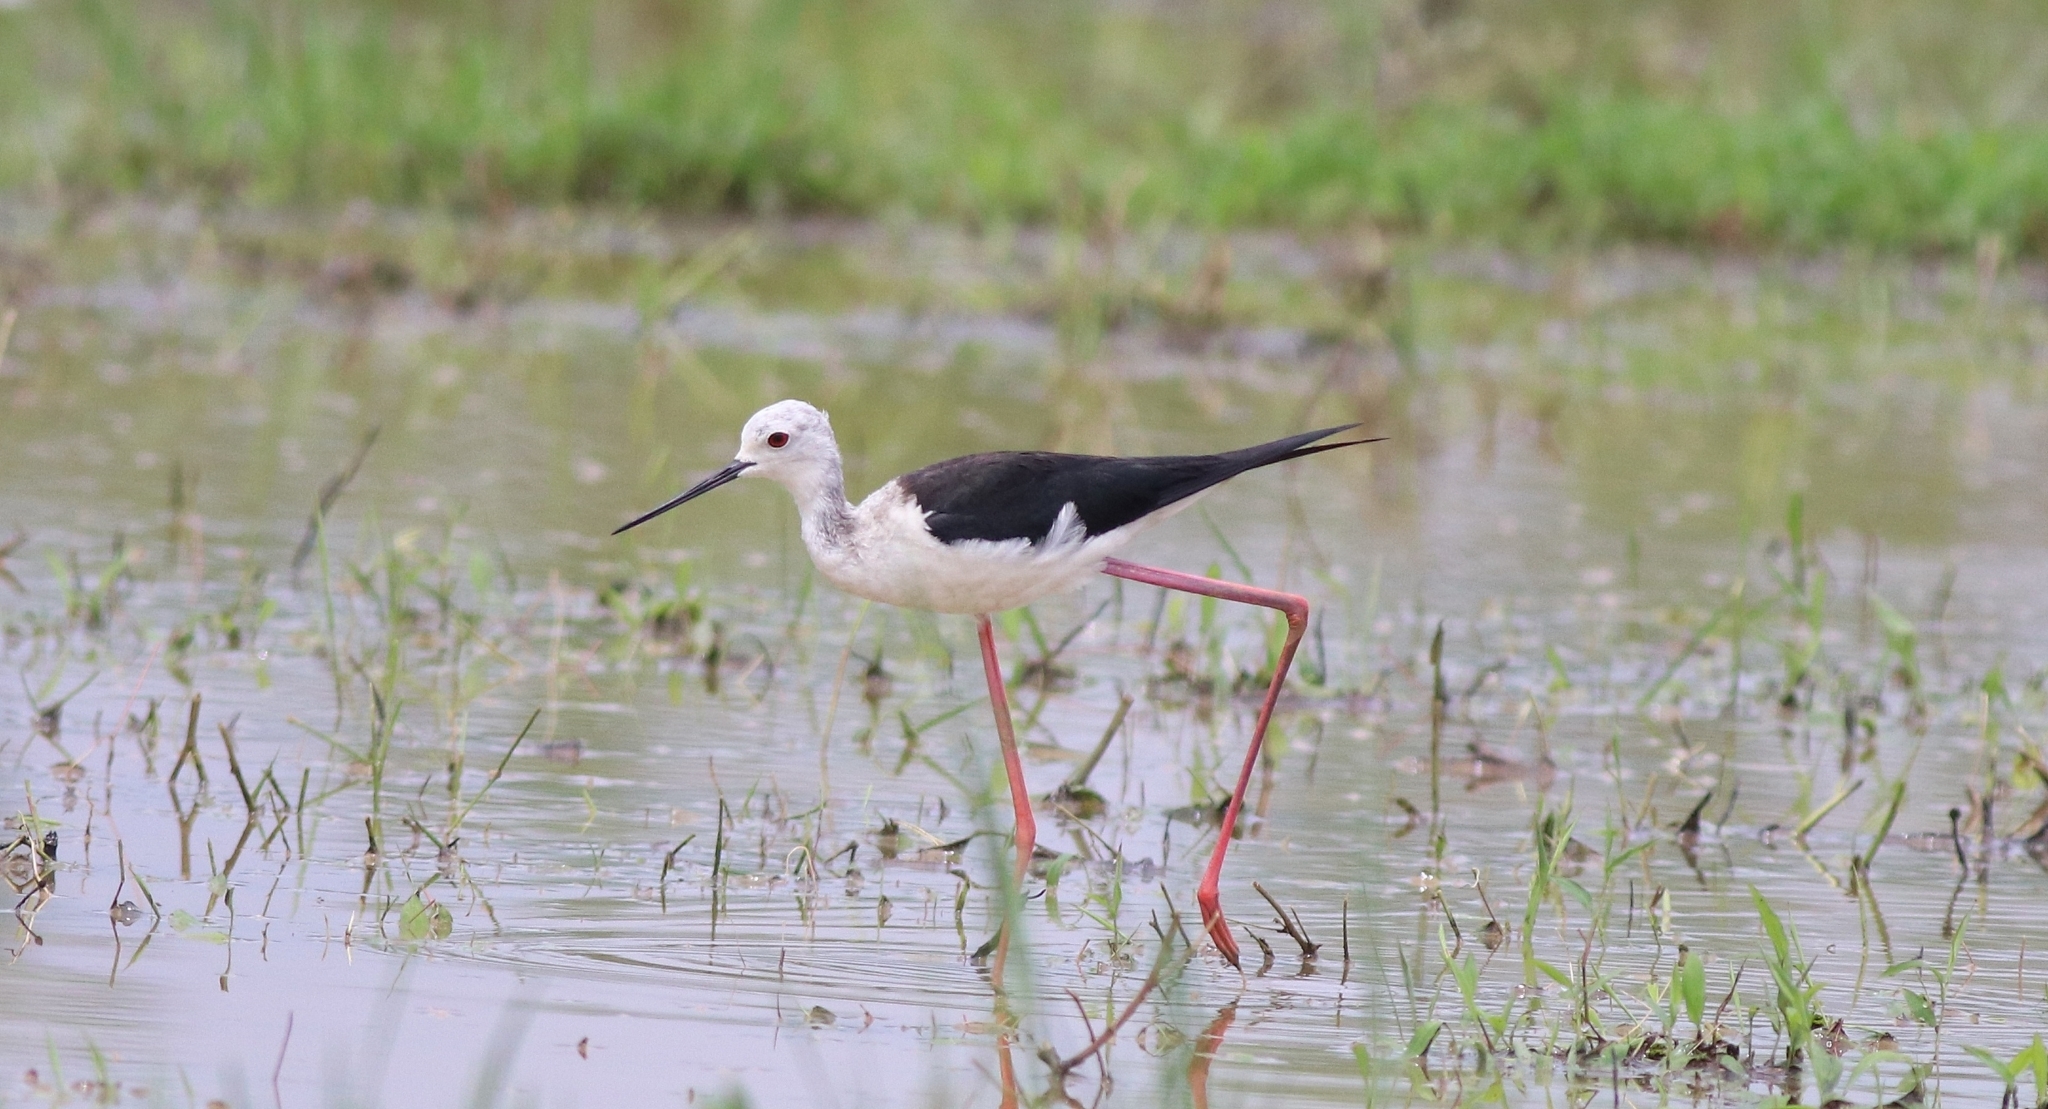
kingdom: Animalia
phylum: Chordata
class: Aves
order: Charadriiformes
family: Recurvirostridae
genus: Himantopus
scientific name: Himantopus himantopus
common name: Black-winged stilt
